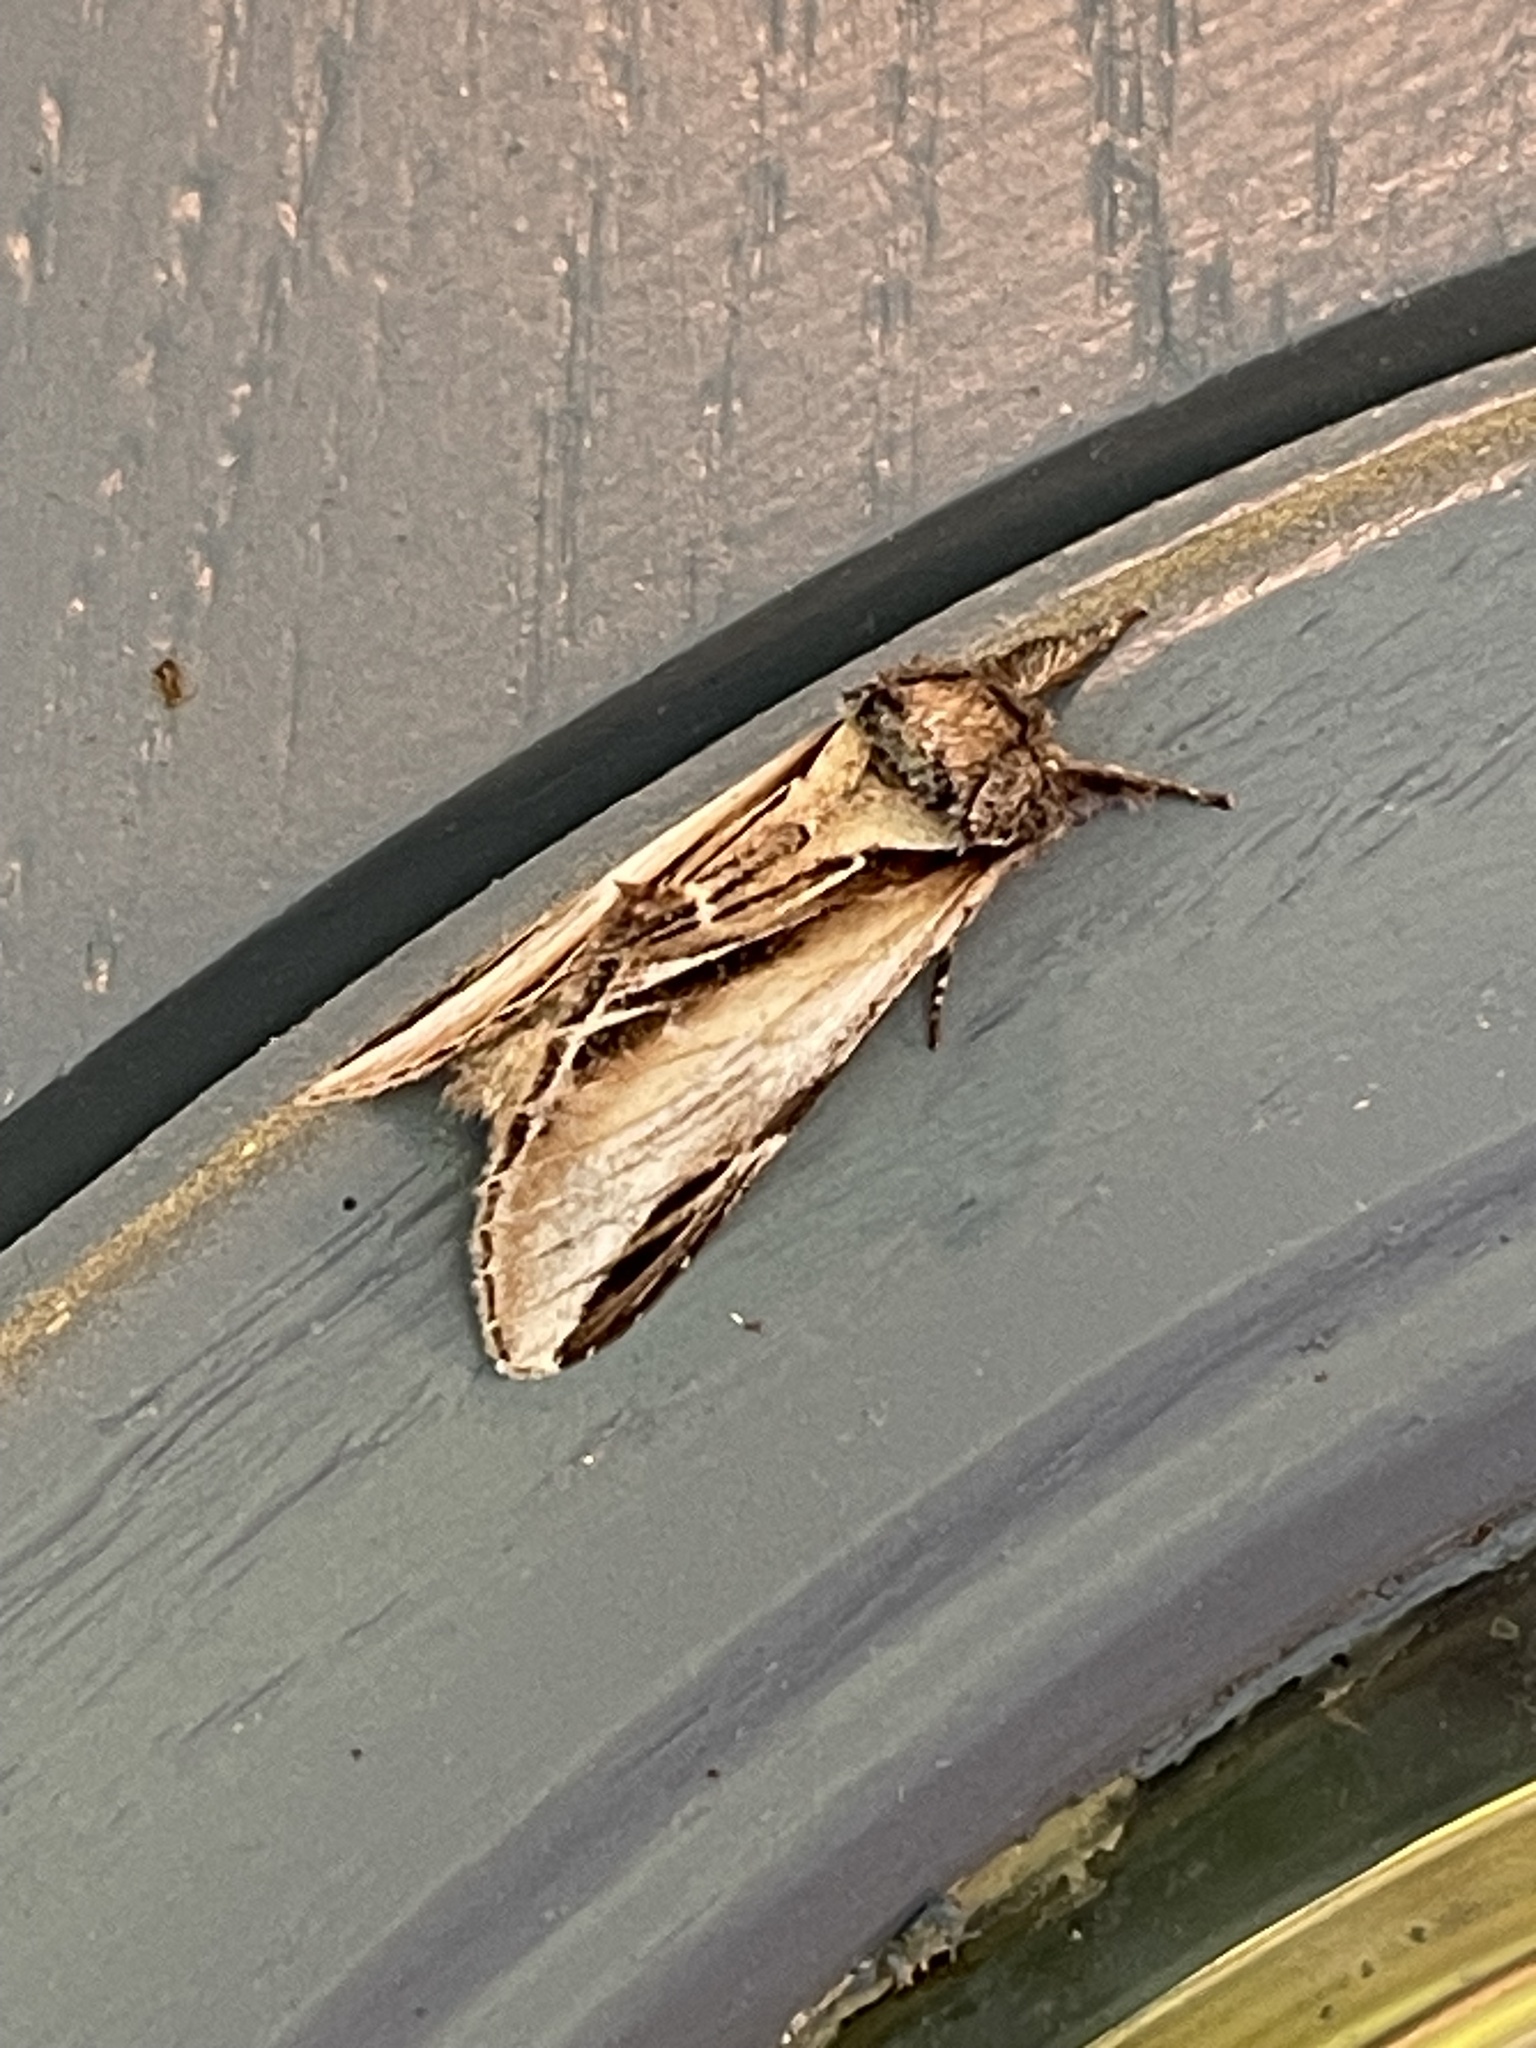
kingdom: Animalia
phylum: Arthropoda
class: Insecta
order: Lepidoptera
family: Notodontidae
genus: Pheosia
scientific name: Pheosia rimosa
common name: Black-rimmed prominent
